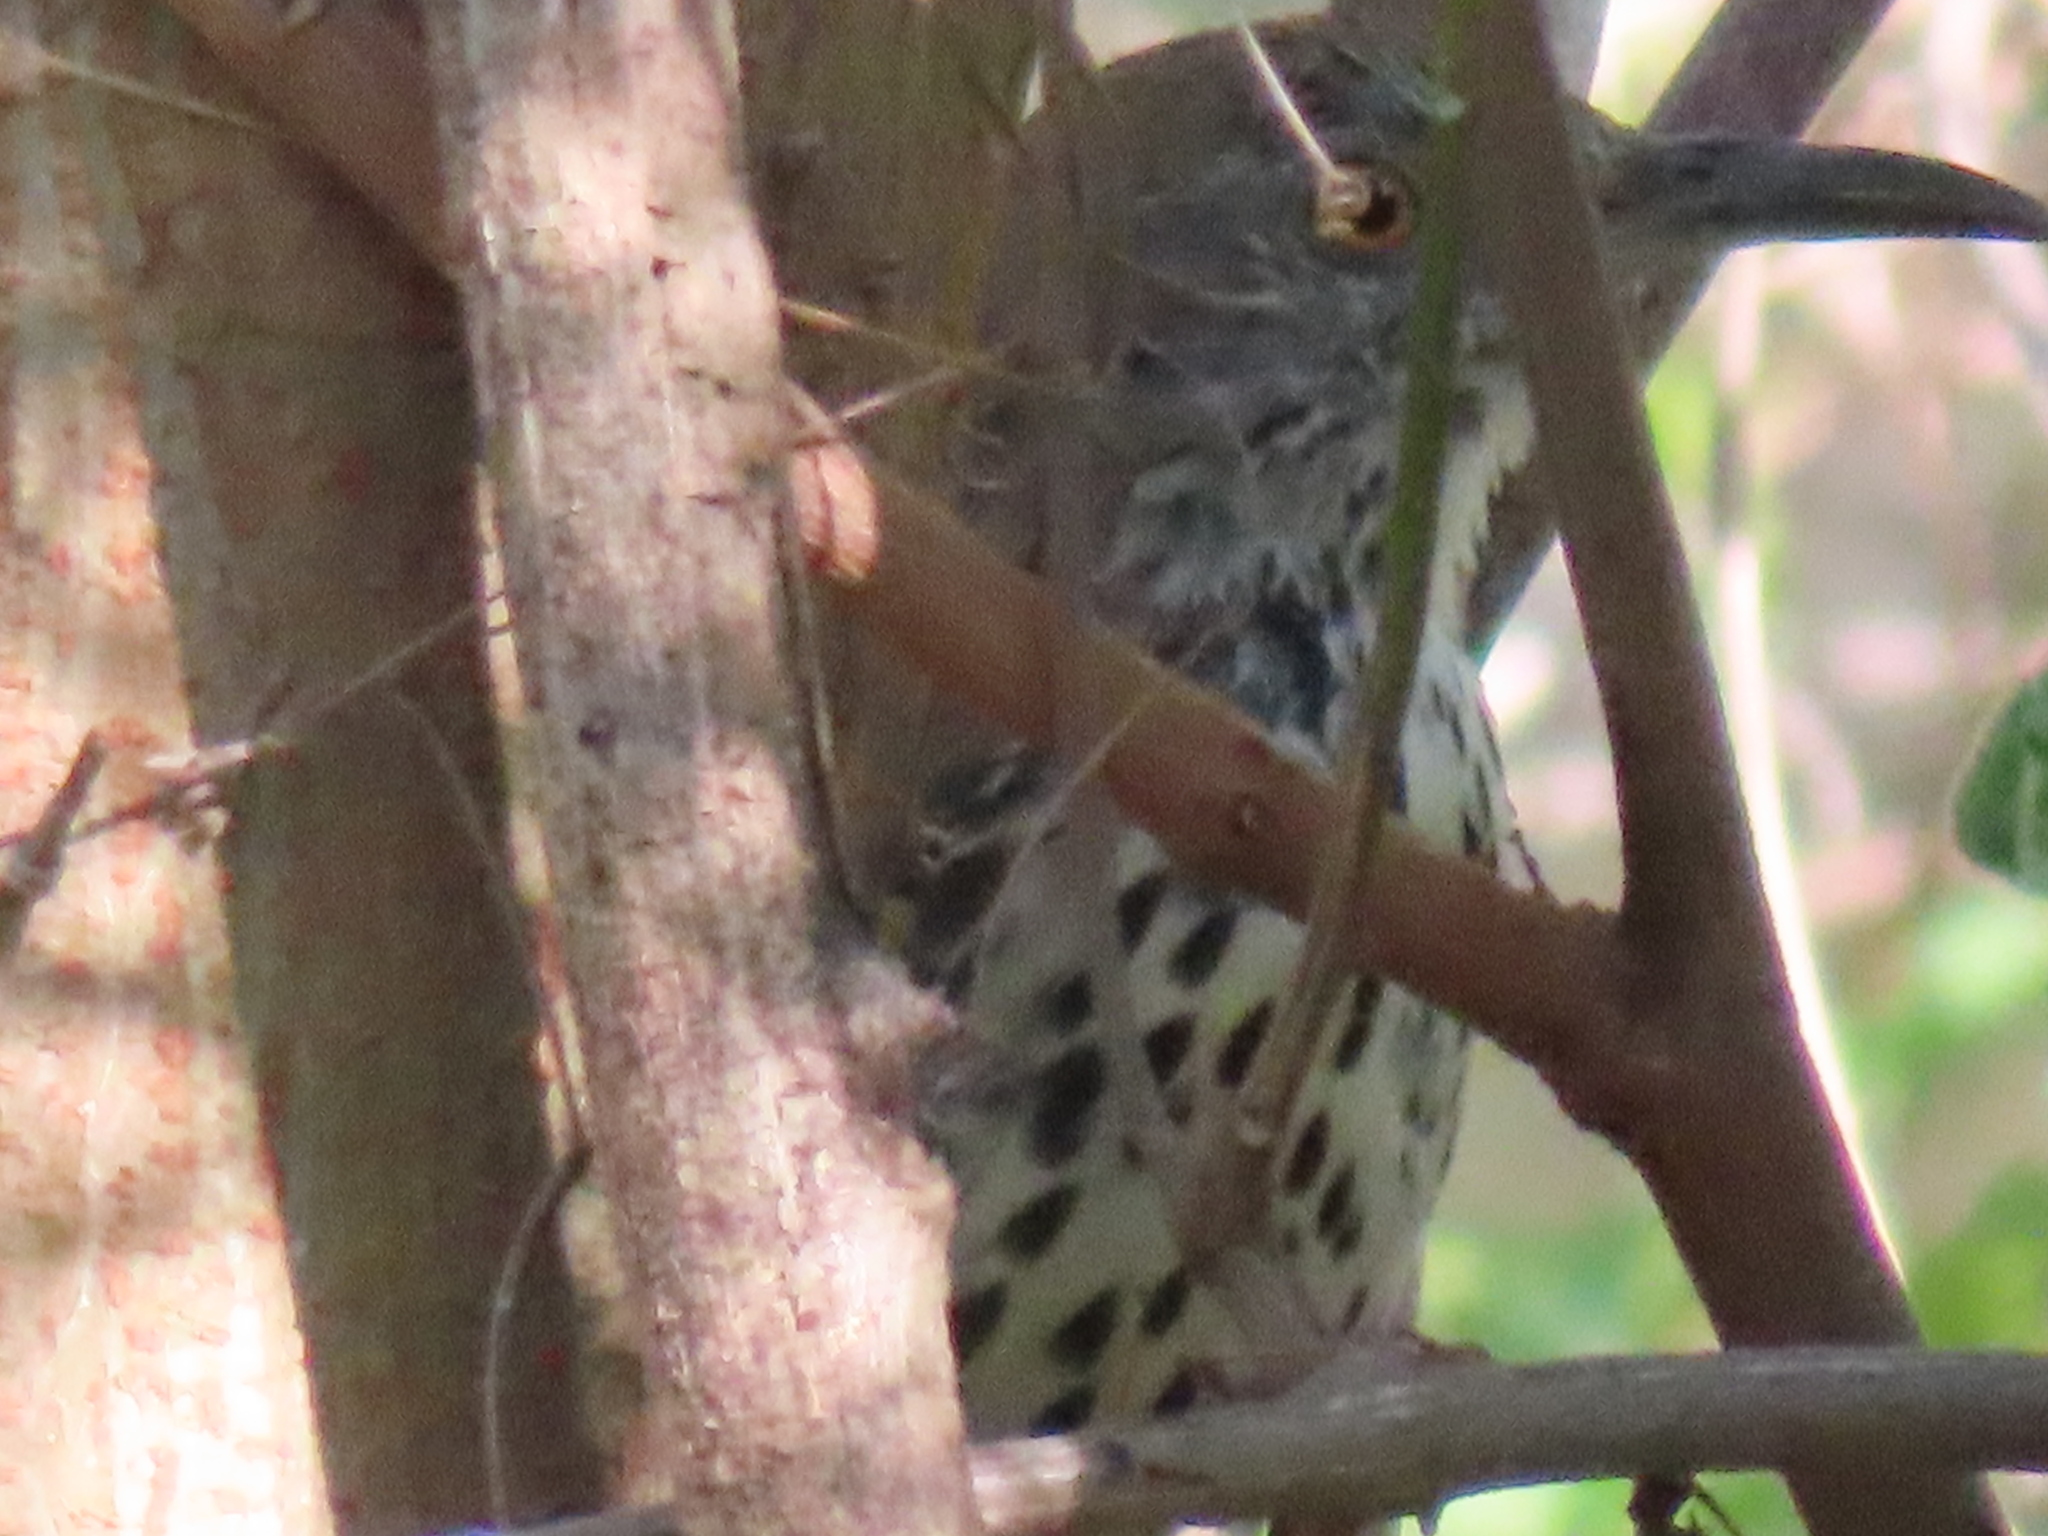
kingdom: Animalia
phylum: Chordata
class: Aves
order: Passeriformes
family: Mimidae
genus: Toxostoma
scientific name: Toxostoma longirostre
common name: Long-billed thrasher
